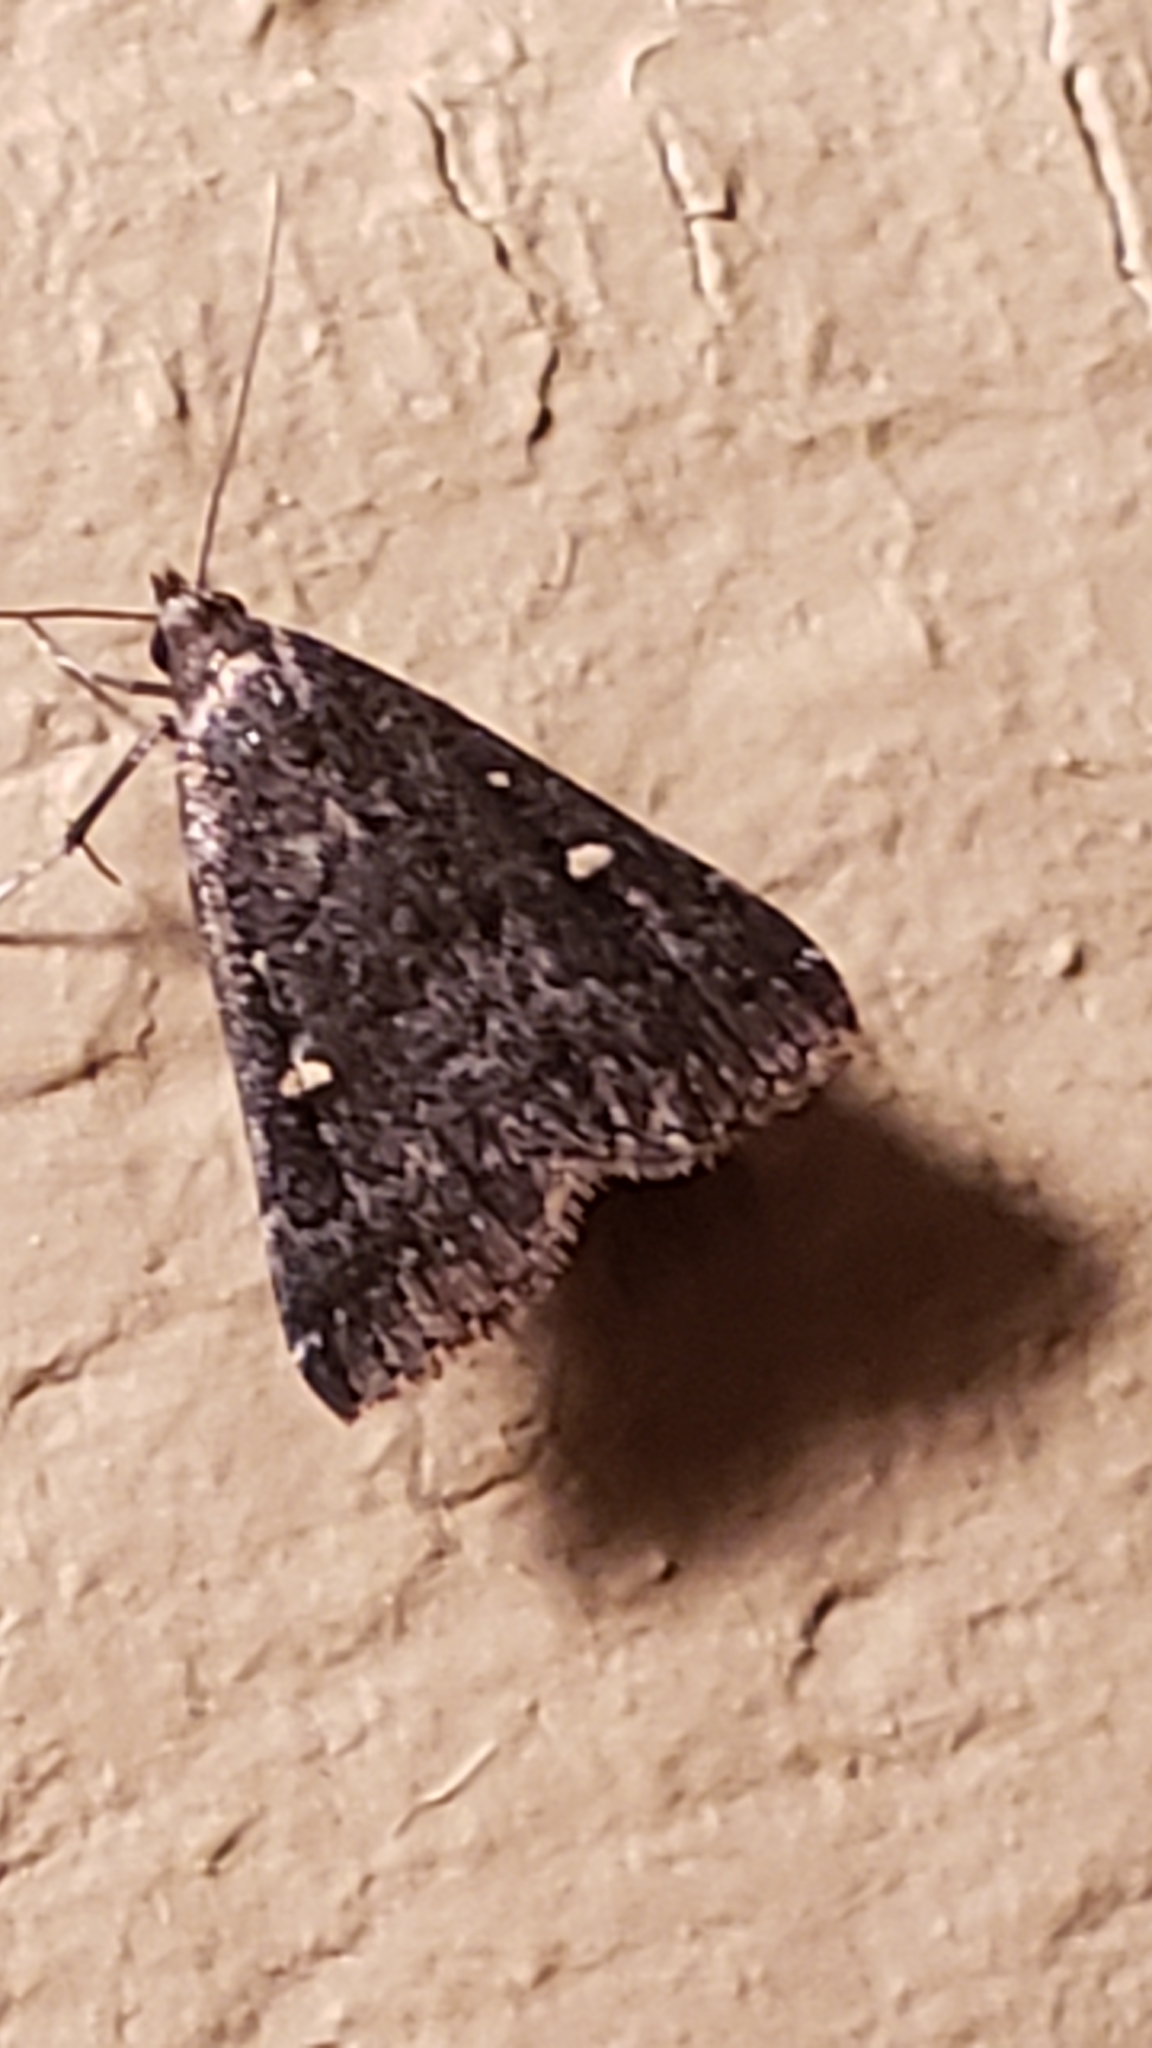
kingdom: Animalia
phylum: Arthropoda
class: Insecta
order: Lepidoptera
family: Erebidae
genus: Tetanolita
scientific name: Tetanolita mynesalis
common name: Smoky tetanolita moth
